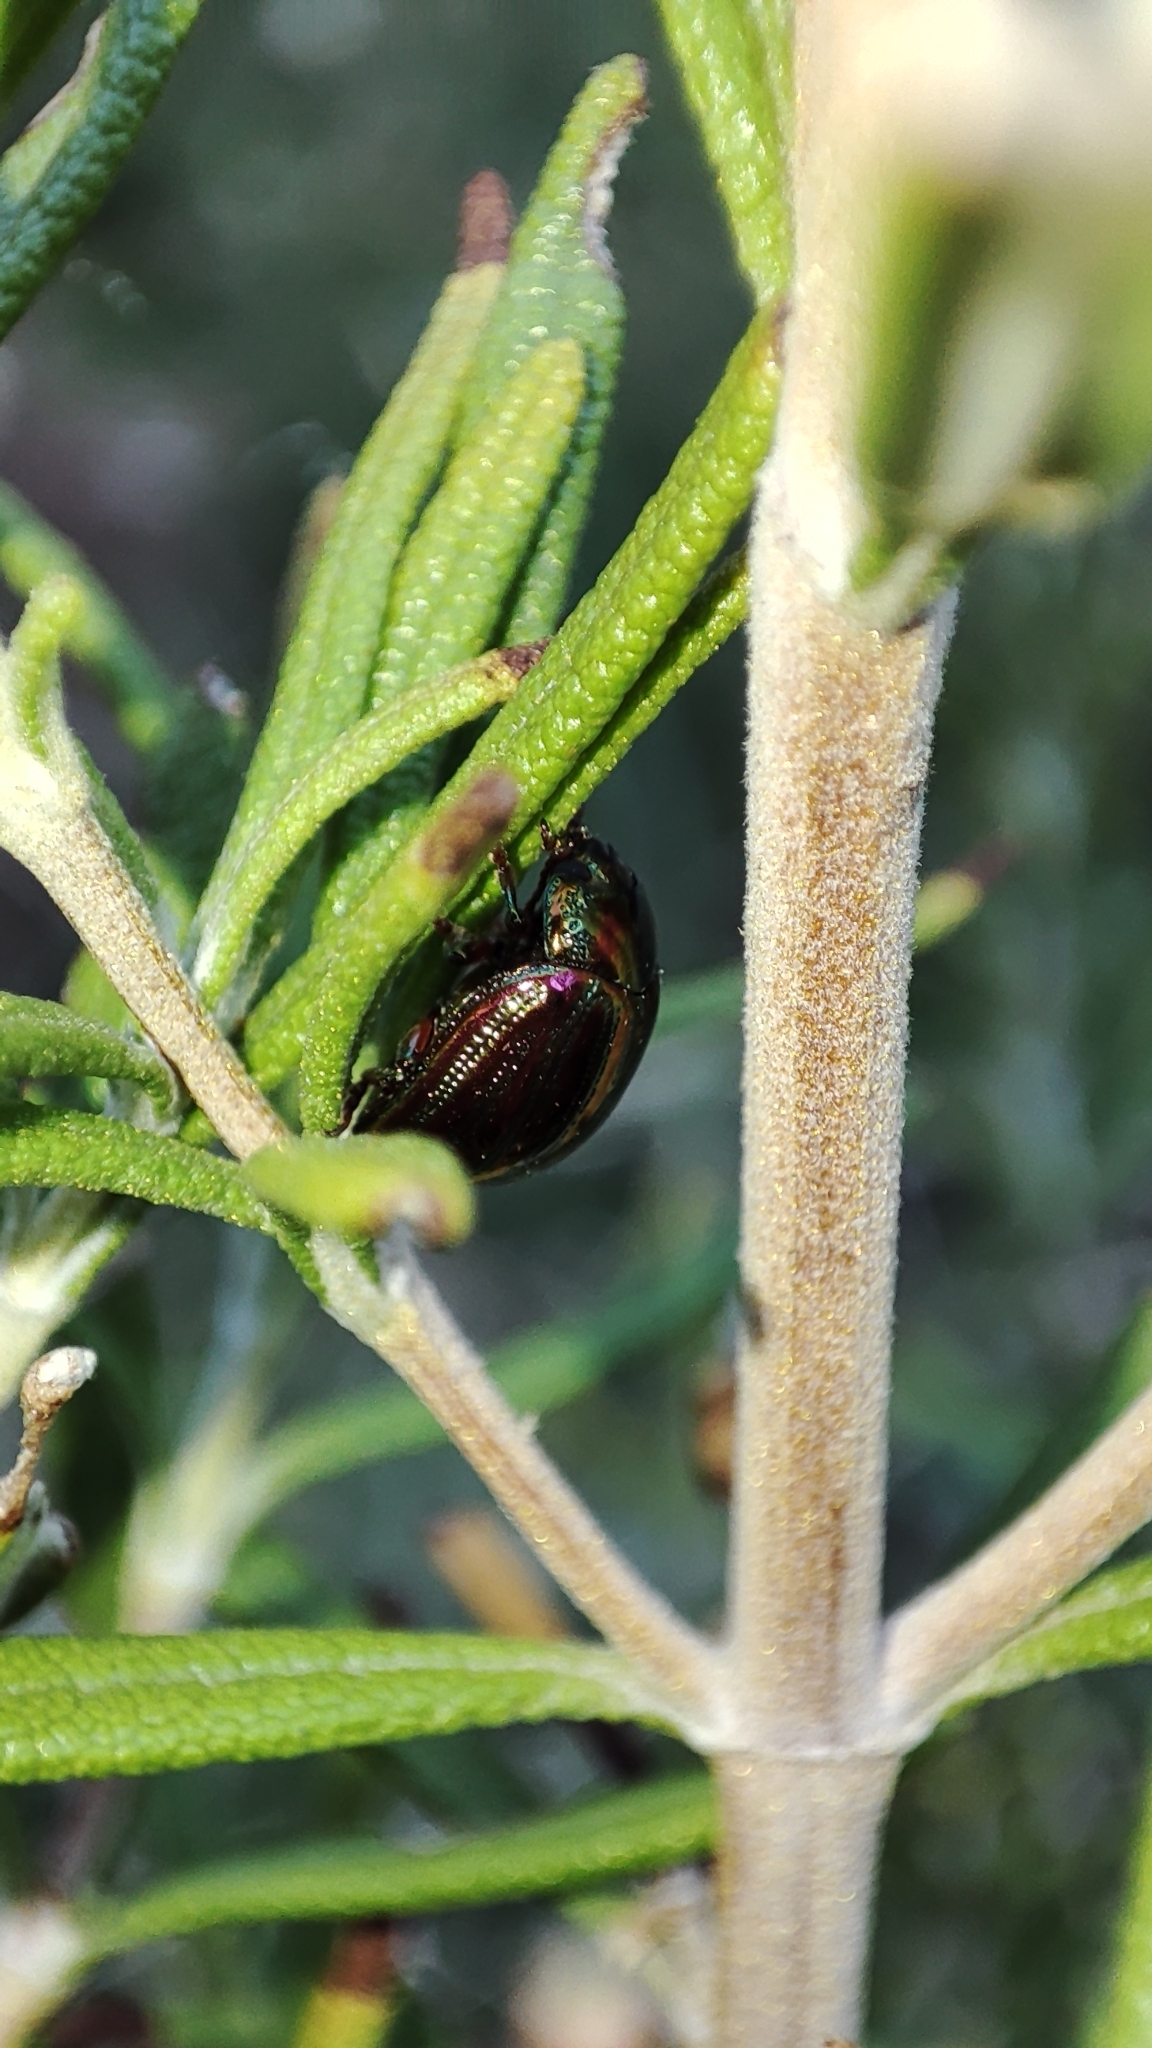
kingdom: Animalia
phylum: Arthropoda
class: Insecta
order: Coleoptera
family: Chrysomelidae
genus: Chrysolina
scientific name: Chrysolina americana
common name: Rosemary beetle
